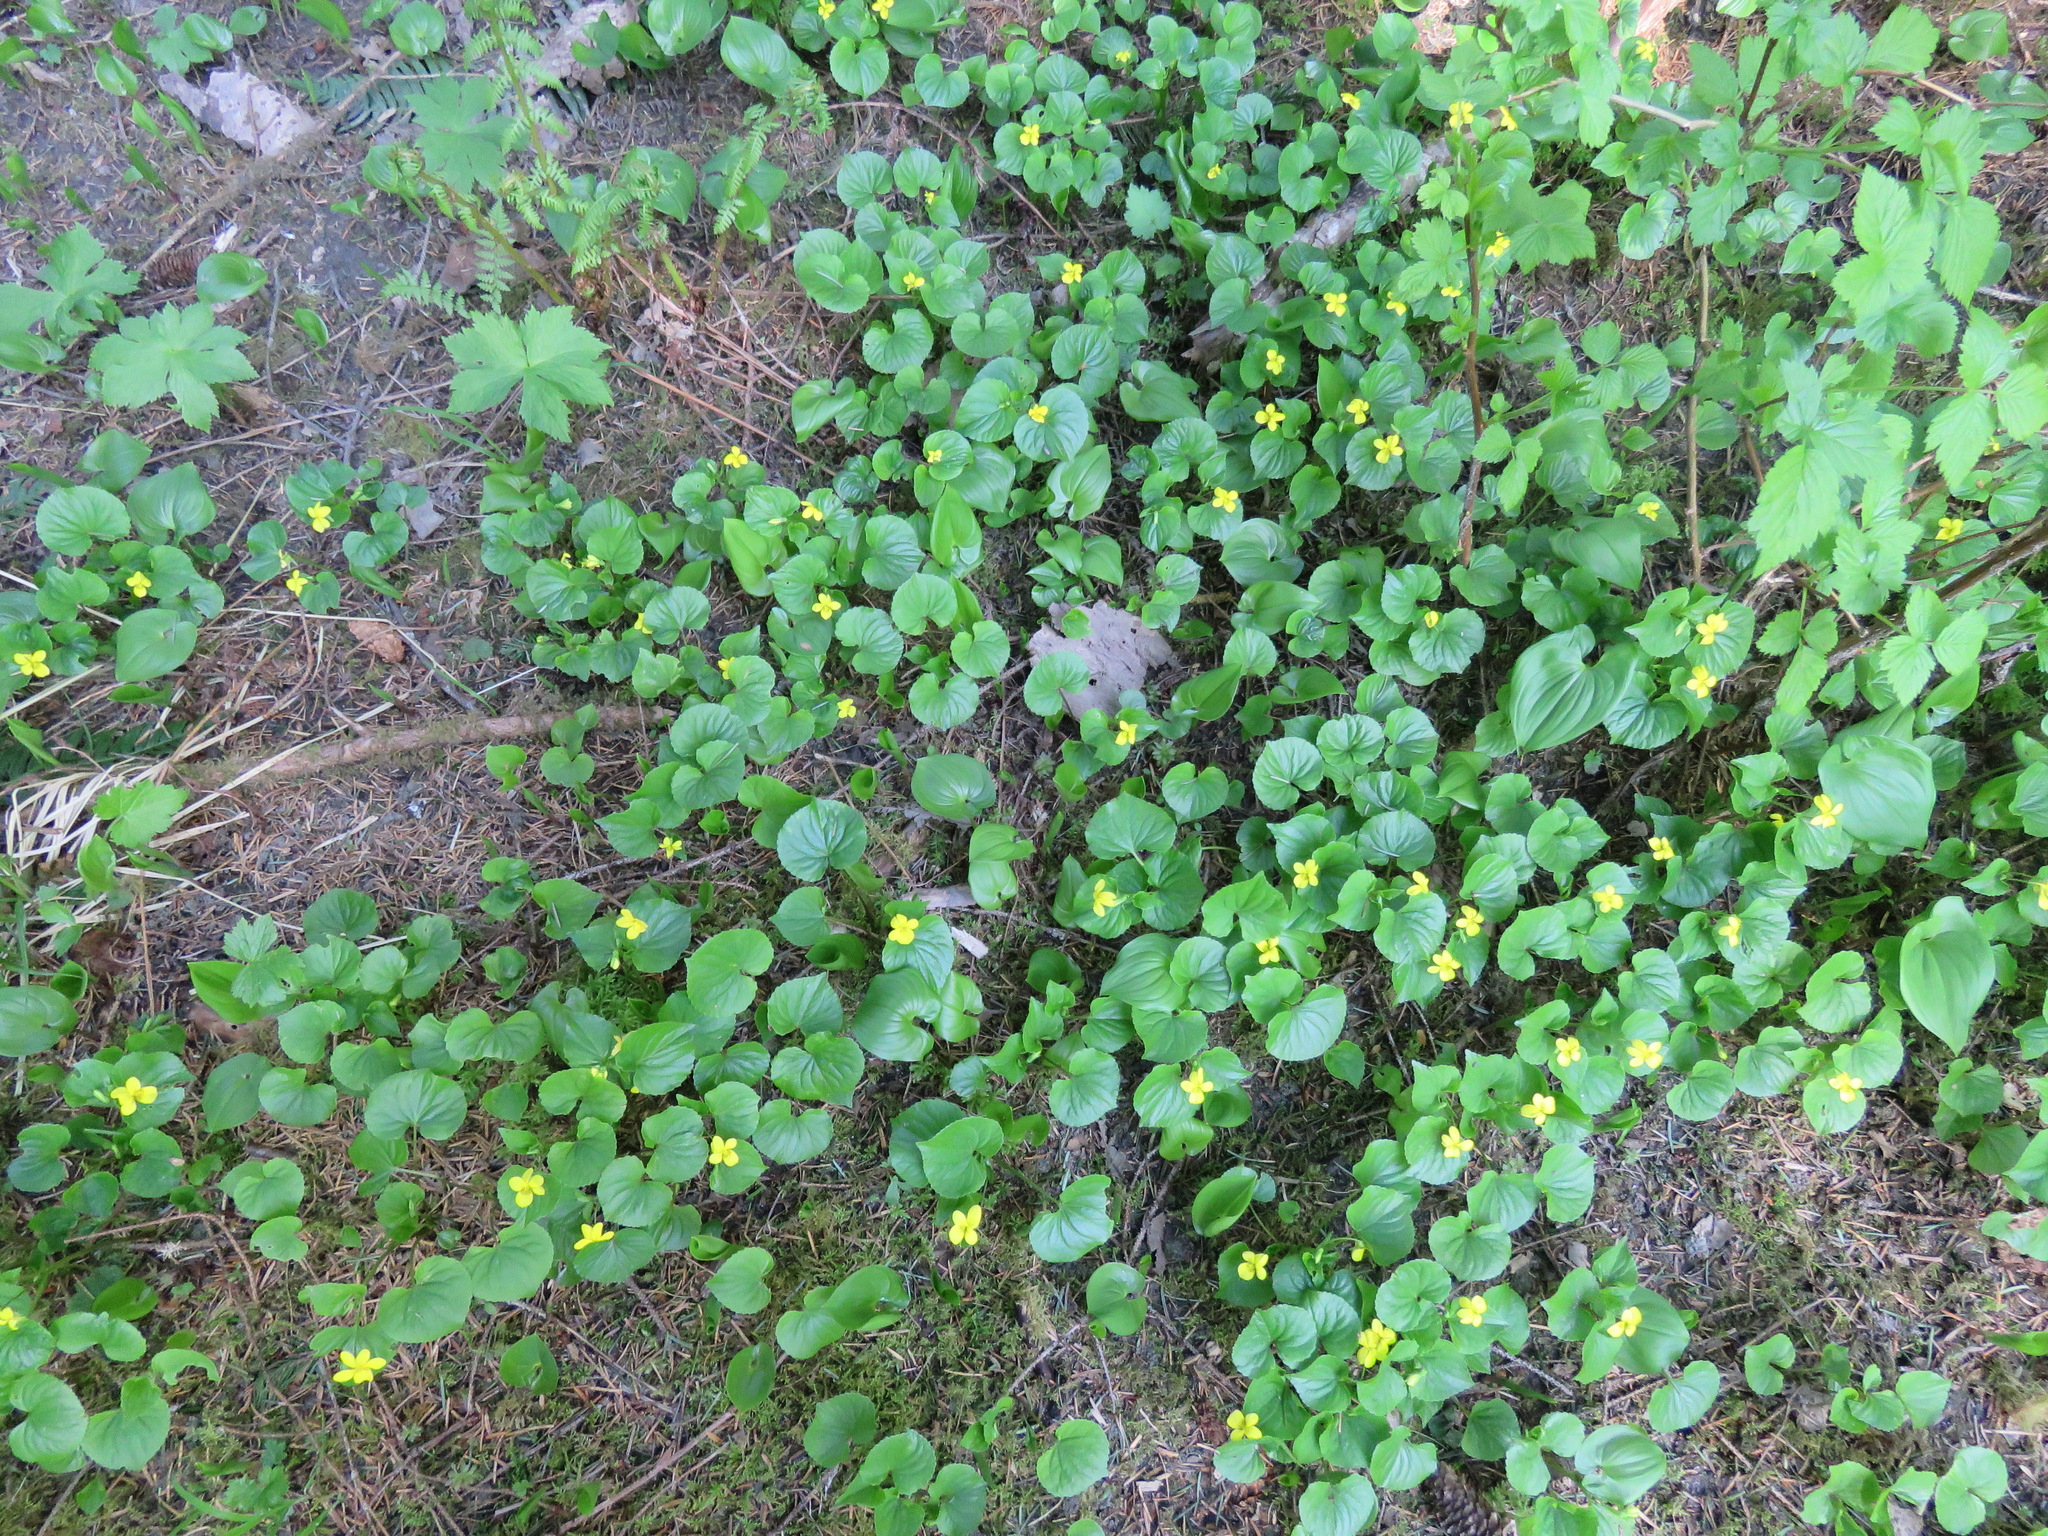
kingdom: Plantae
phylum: Tracheophyta
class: Magnoliopsida
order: Malpighiales
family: Violaceae
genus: Viola
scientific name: Viola glabella
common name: Stream violet
